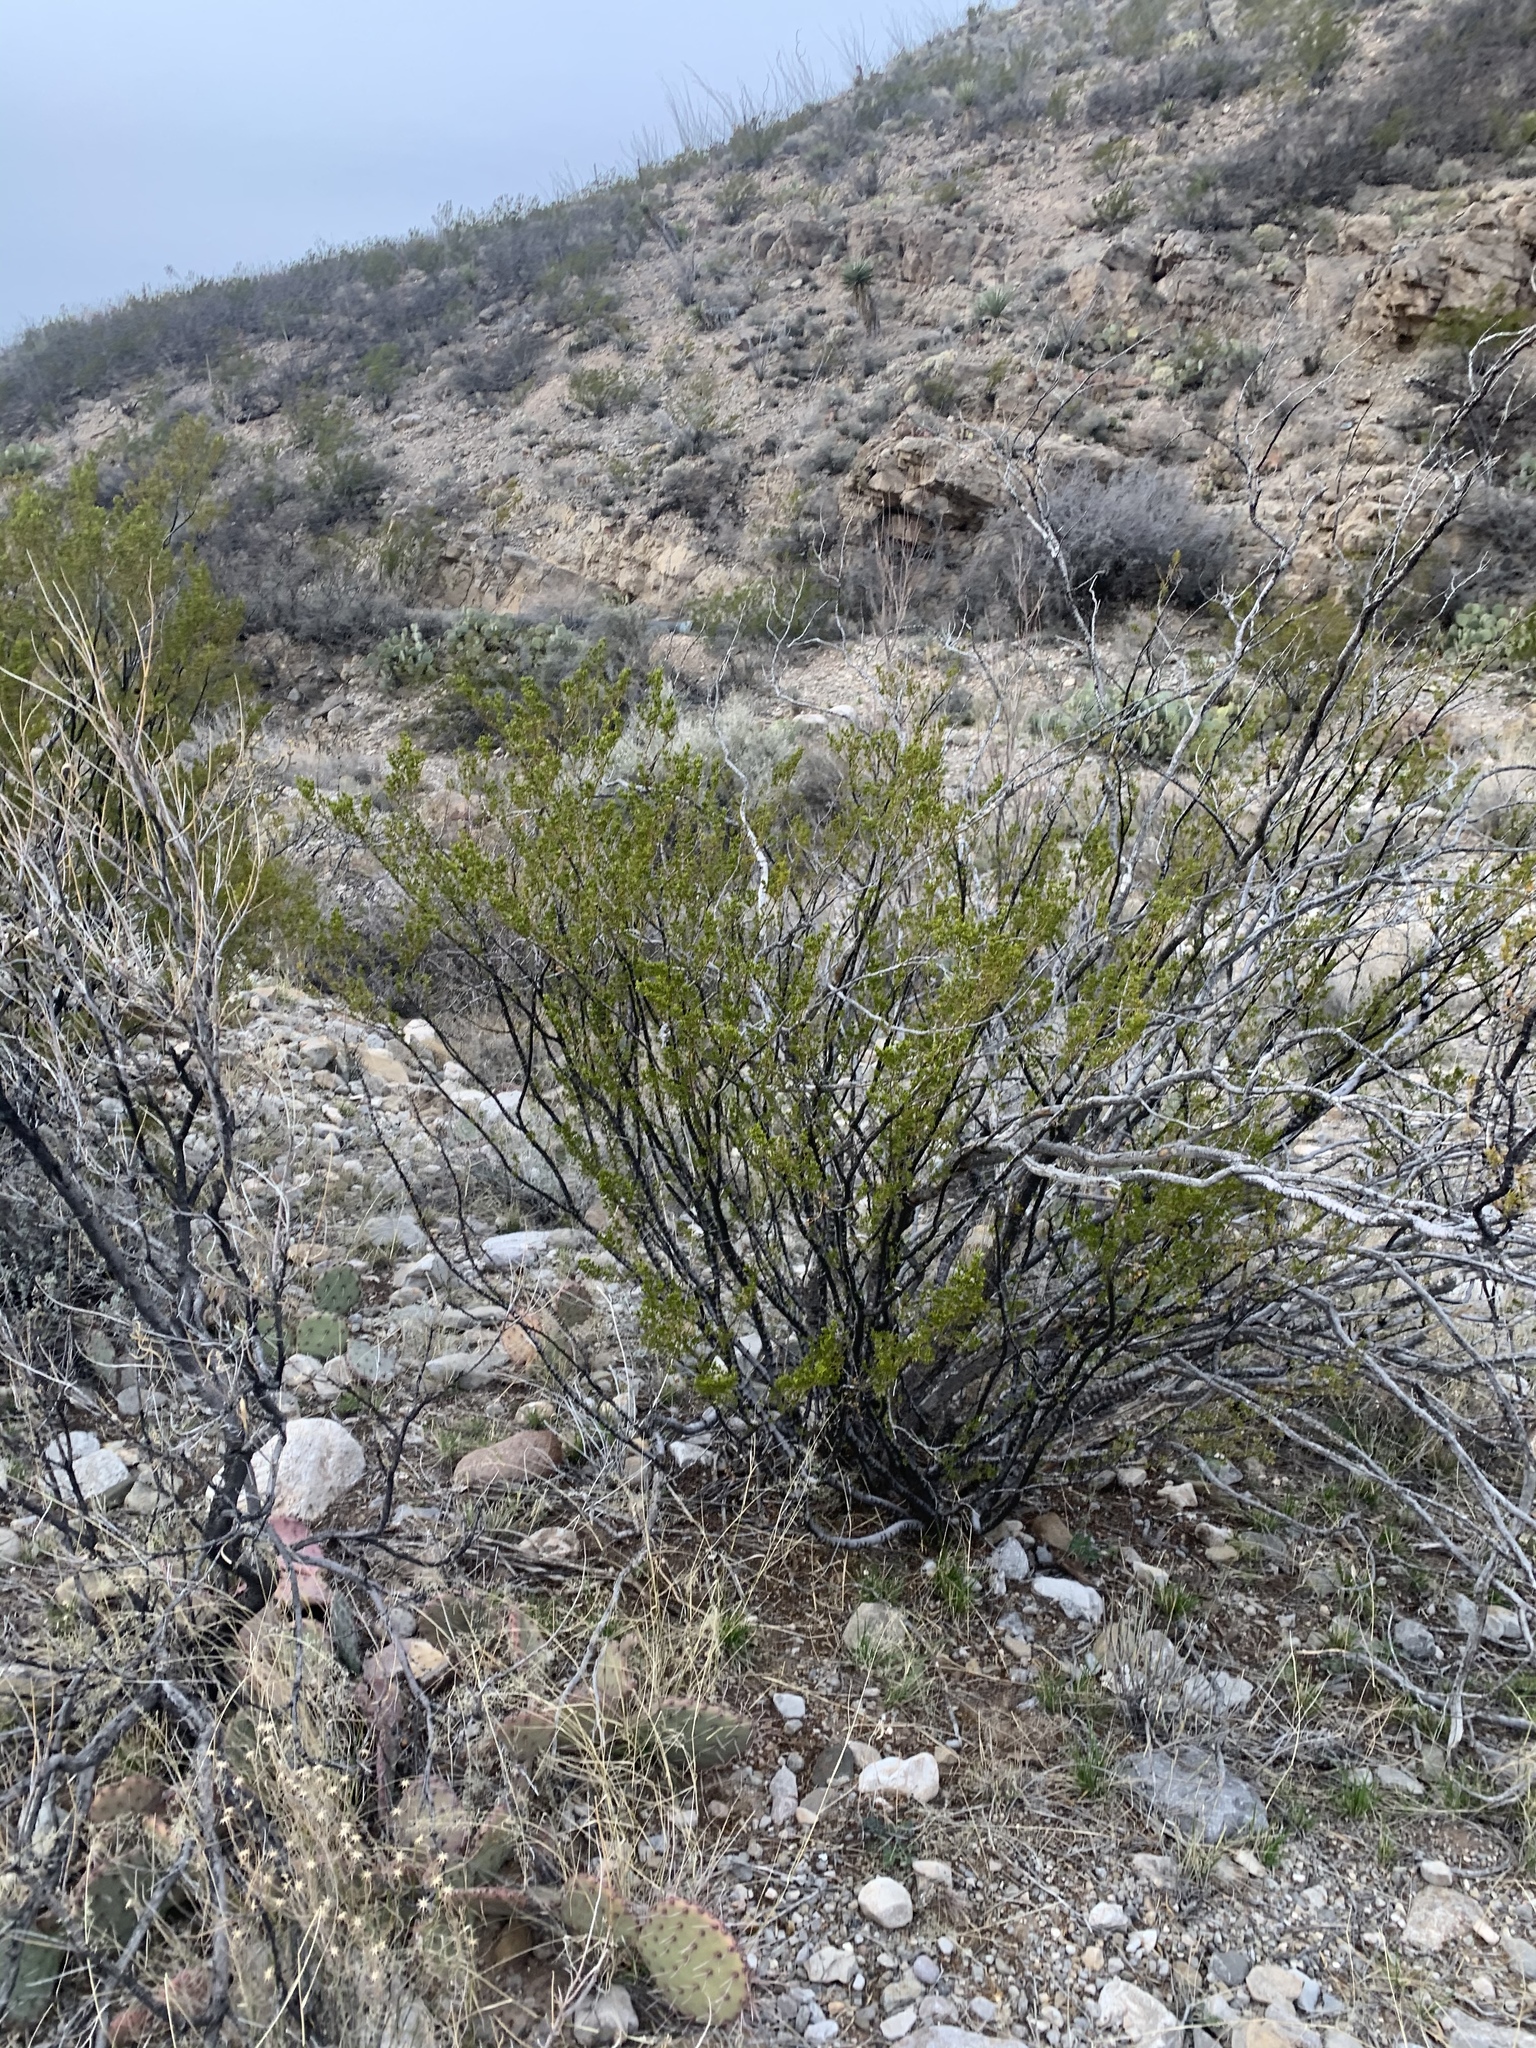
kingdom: Plantae
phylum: Tracheophyta
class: Magnoliopsida
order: Zygophyllales
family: Zygophyllaceae
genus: Larrea
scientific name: Larrea tridentata
